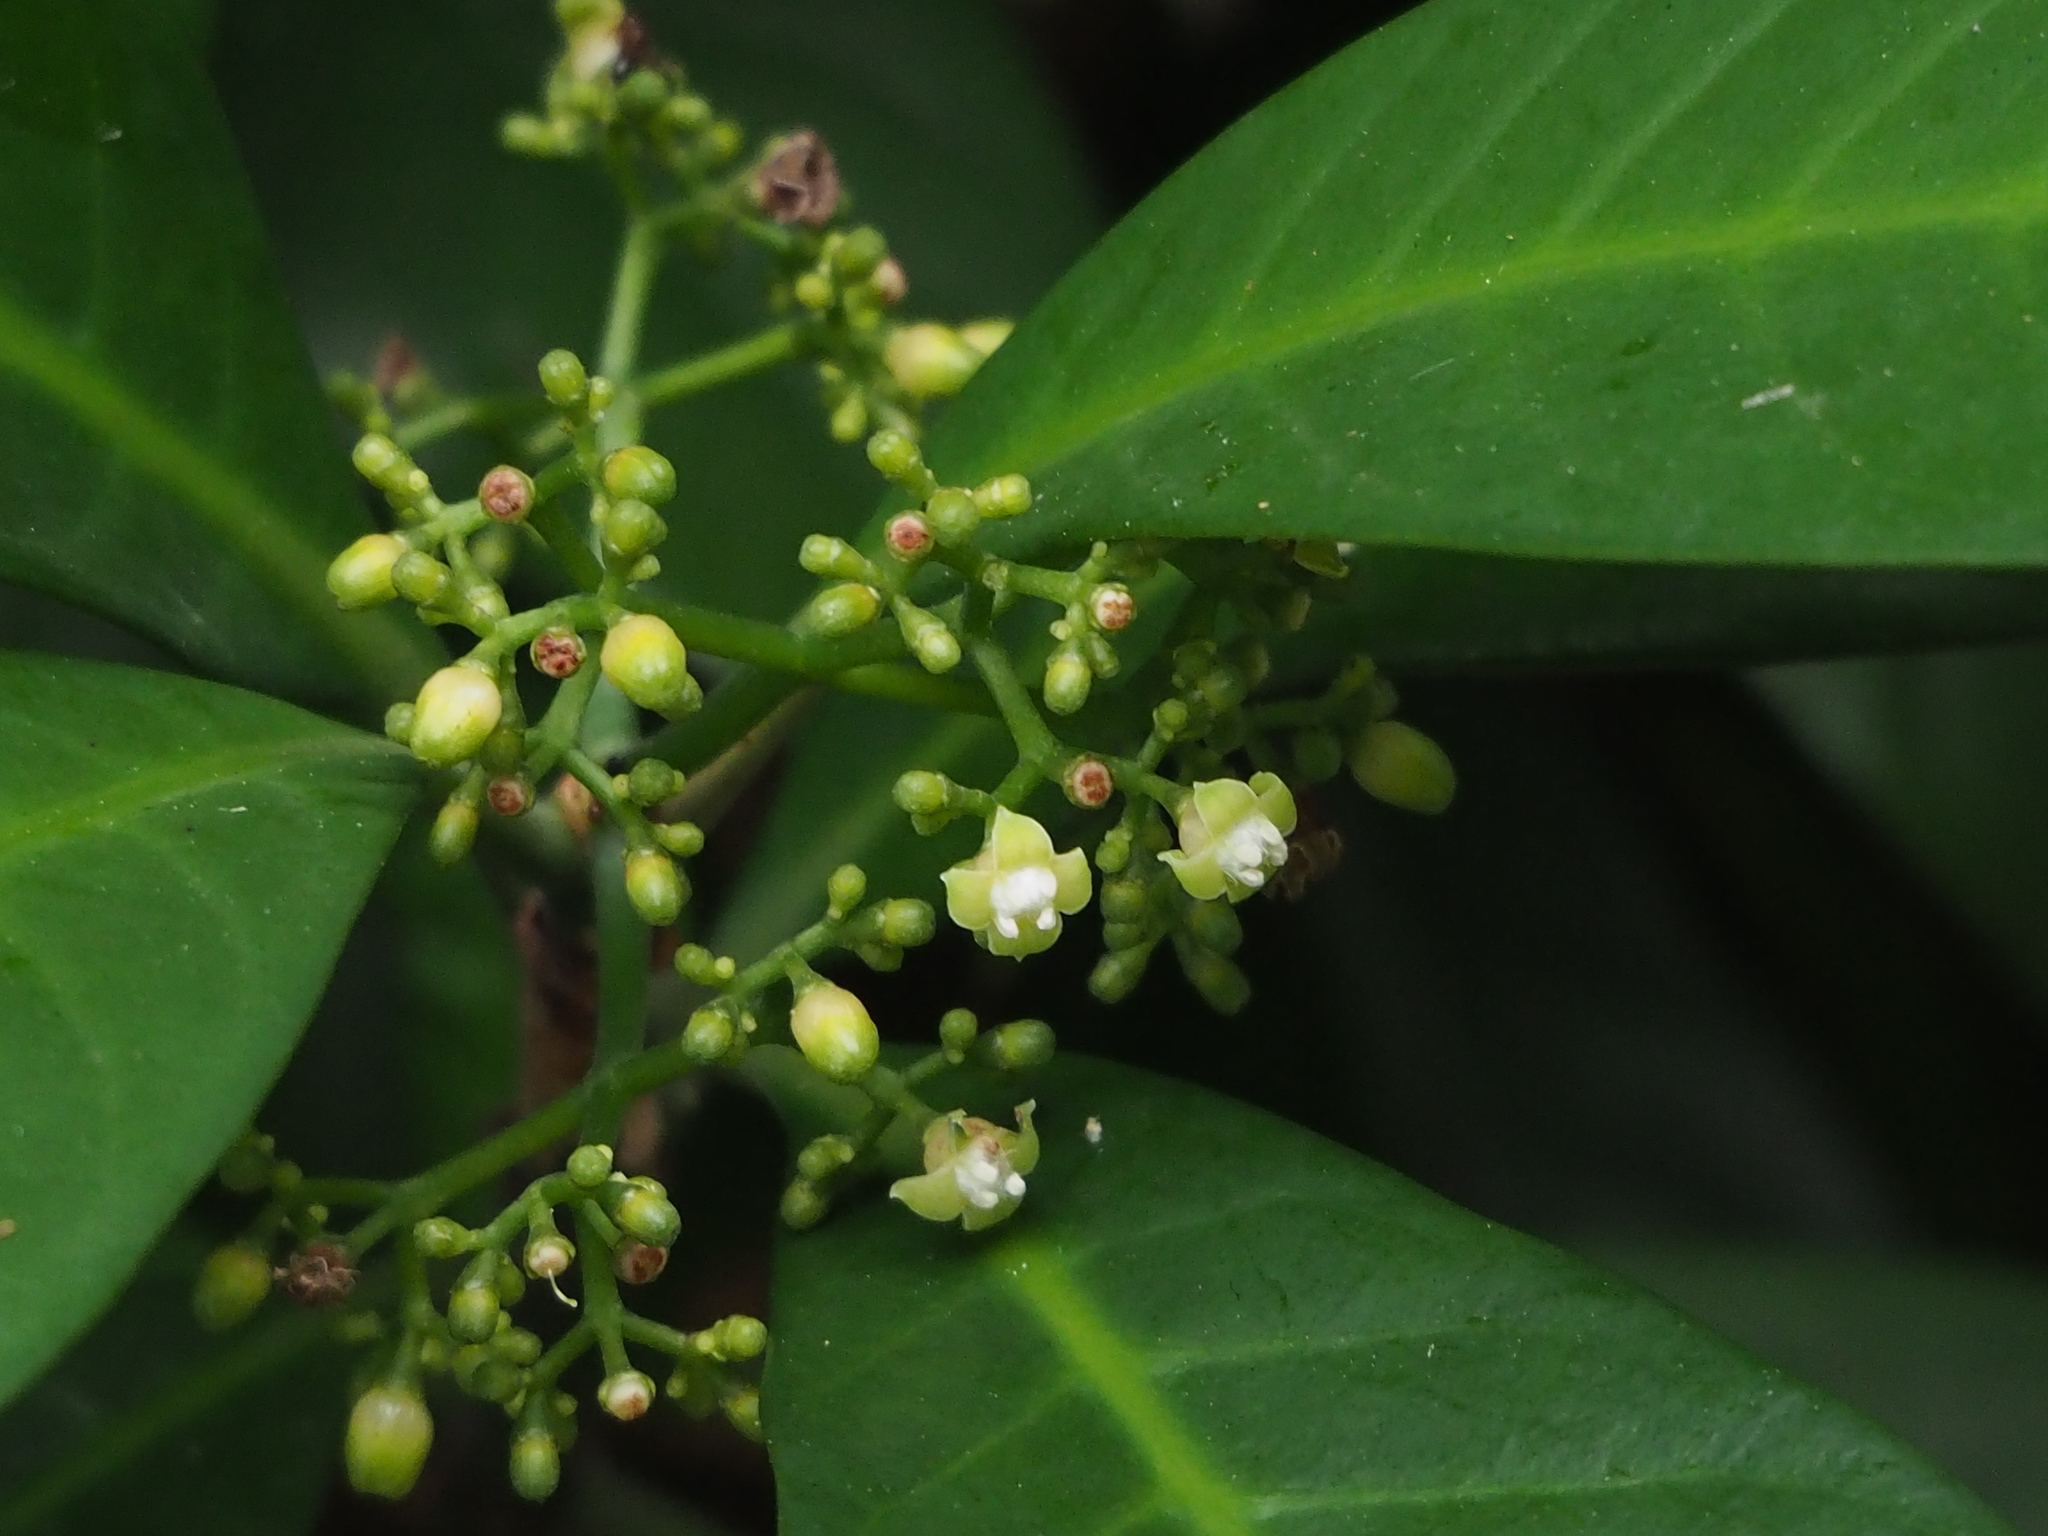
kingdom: Plantae
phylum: Tracheophyta
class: Magnoliopsida
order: Gentianales
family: Rubiaceae
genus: Psychotria
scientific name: Psychotria asiatica
